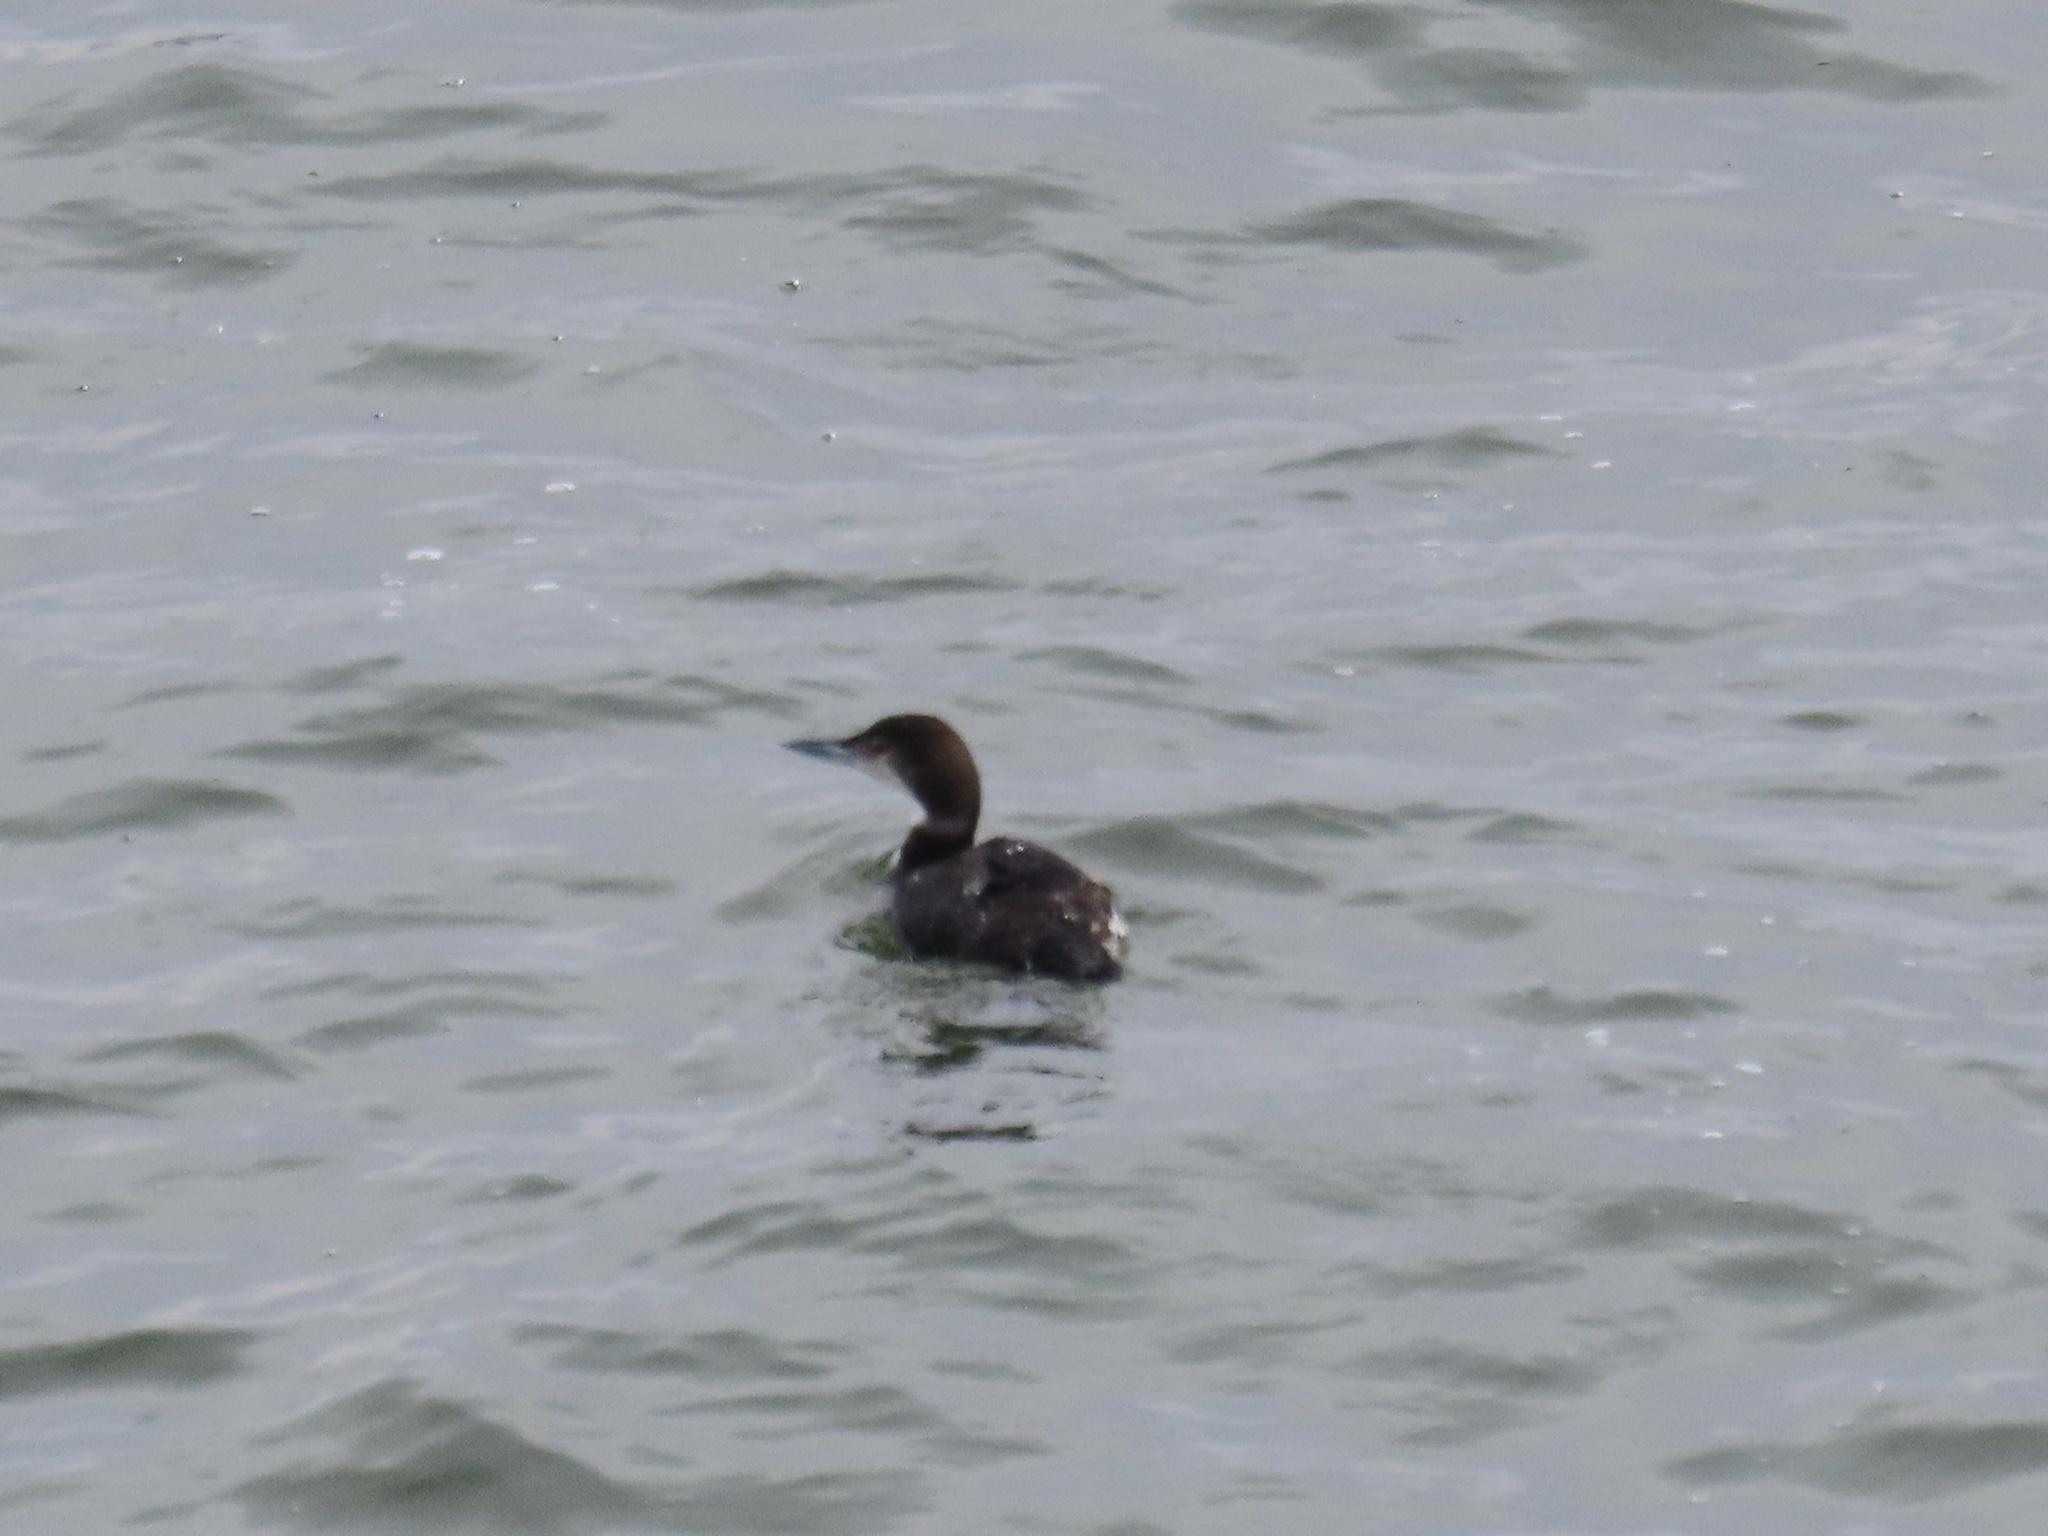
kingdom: Animalia
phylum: Chordata
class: Aves
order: Gaviiformes
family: Gaviidae
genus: Gavia
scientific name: Gavia immer
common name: Common loon
